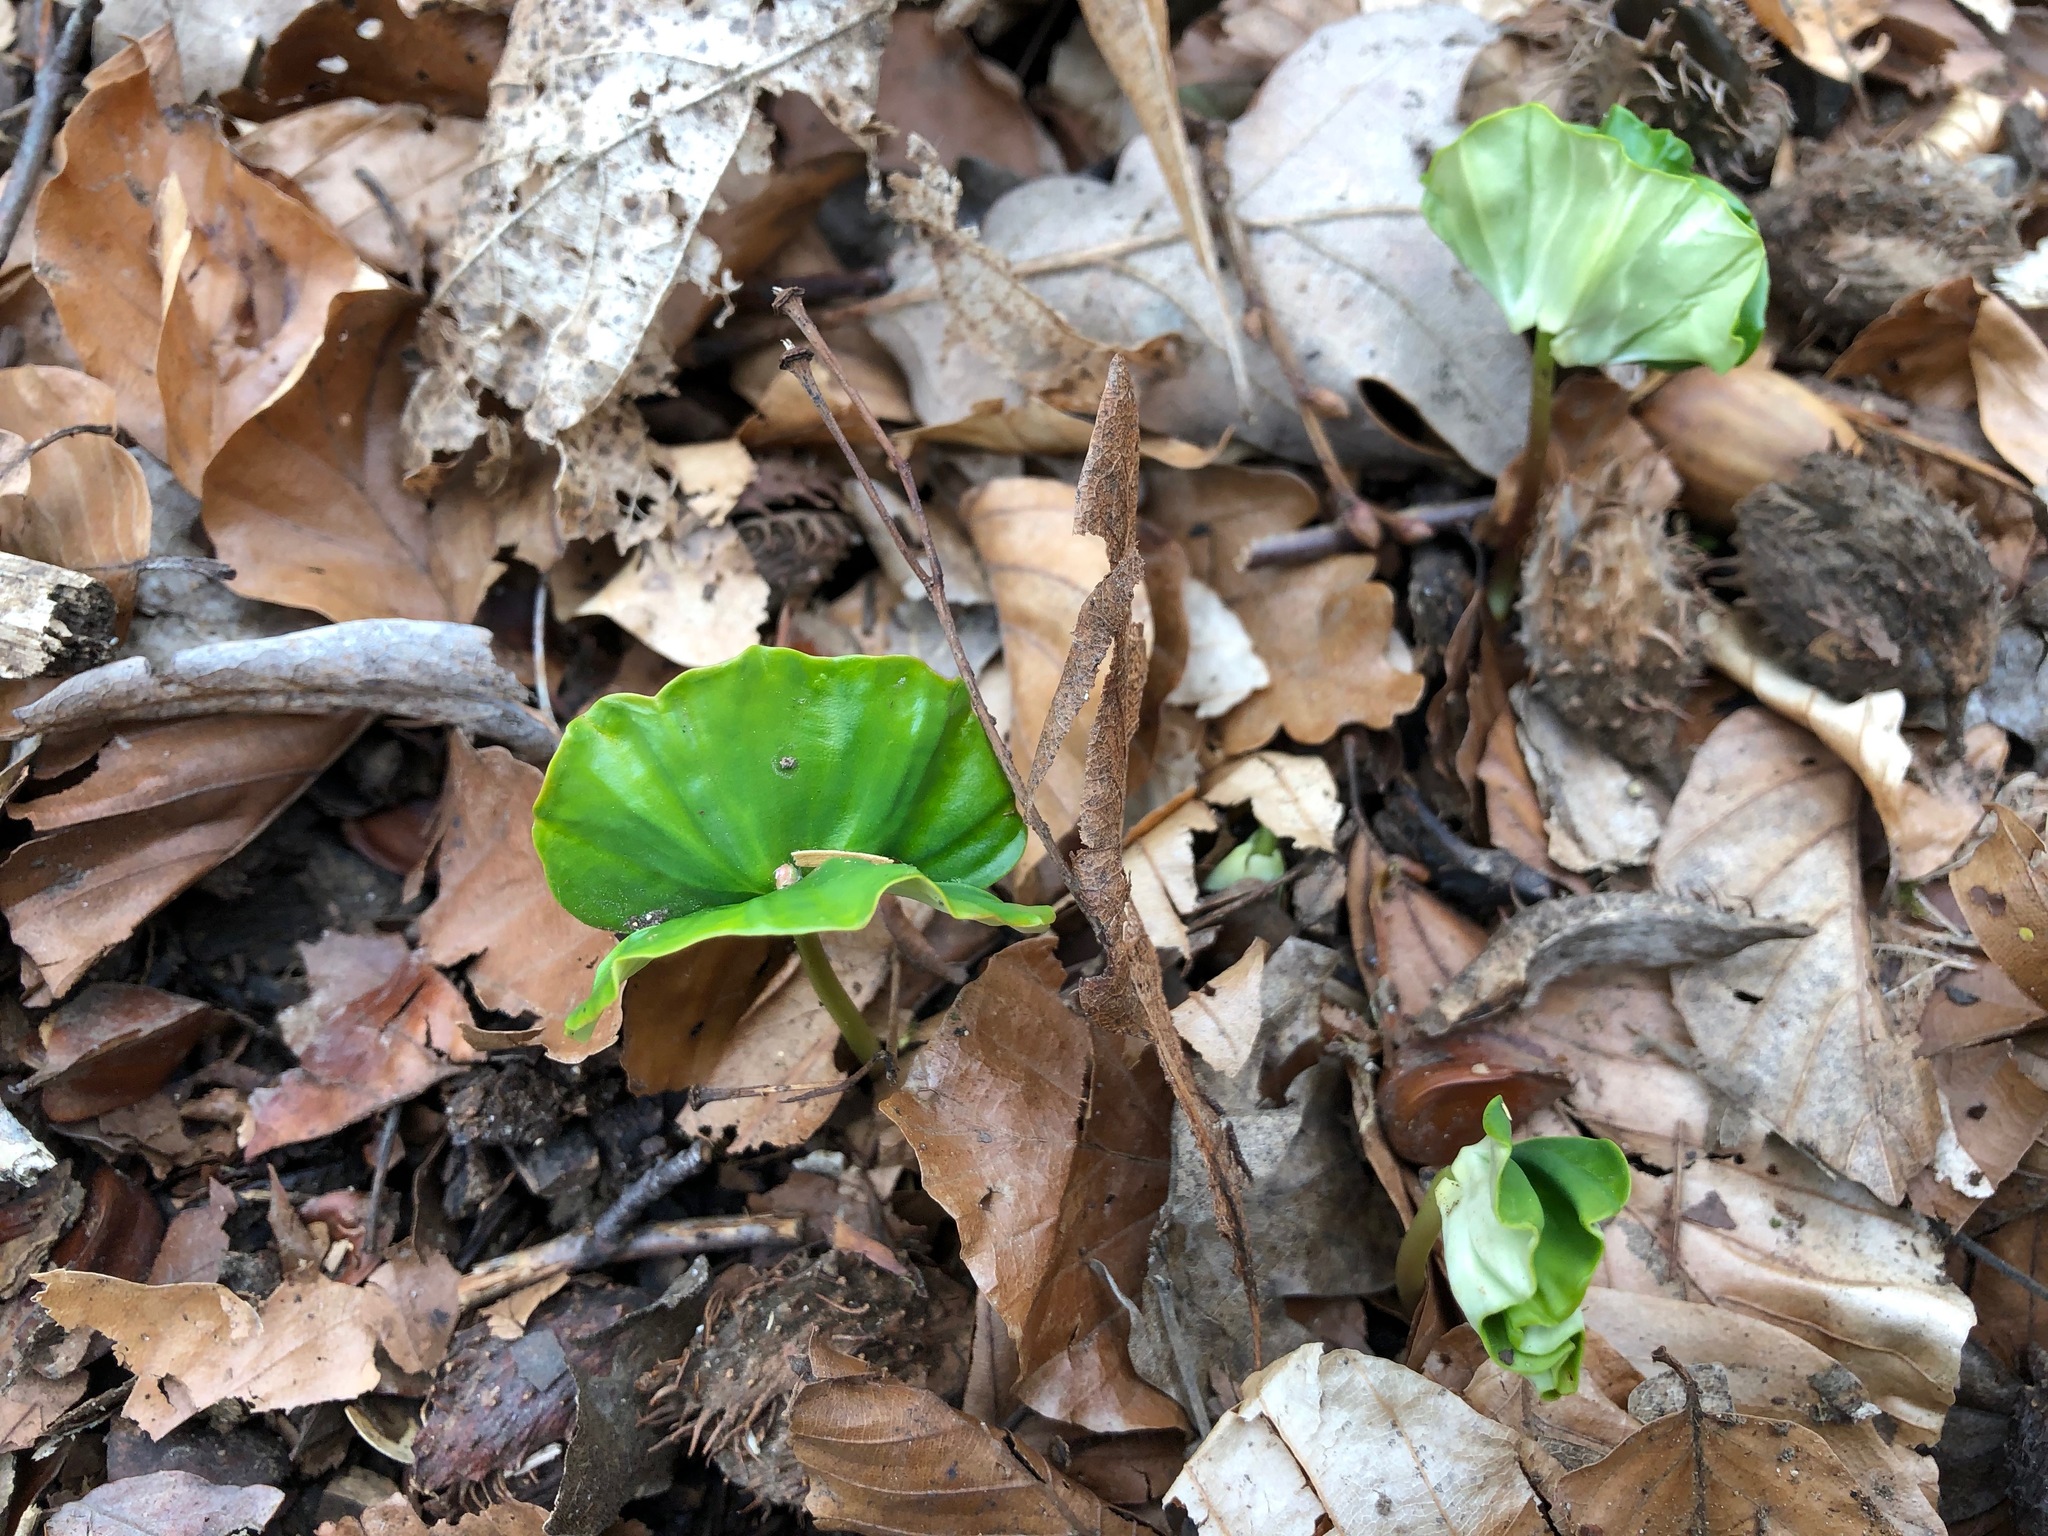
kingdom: Plantae
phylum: Tracheophyta
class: Magnoliopsida
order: Fagales
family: Fagaceae
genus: Fagus
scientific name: Fagus sylvatica
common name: Beech
